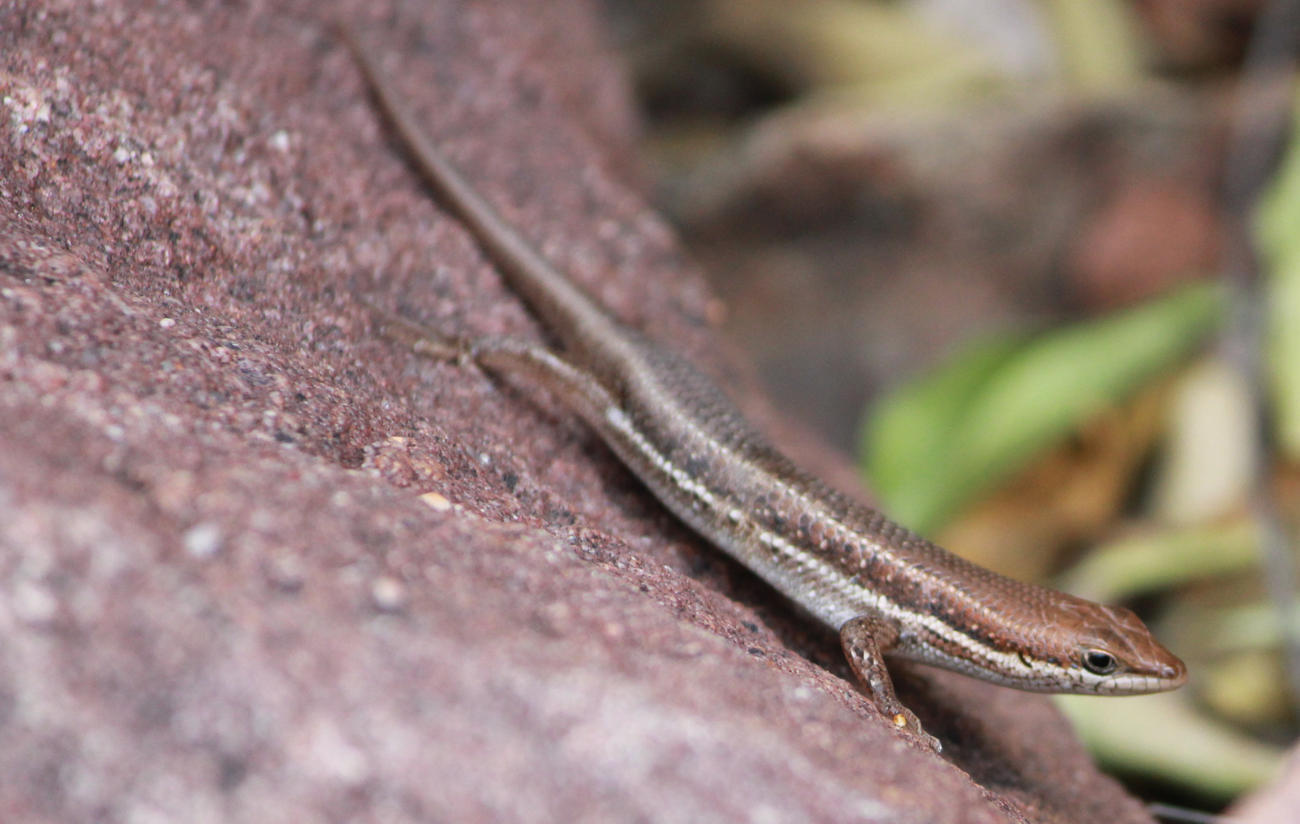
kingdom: Animalia
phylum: Chordata
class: Squamata
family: Scincidae
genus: Trachylepis
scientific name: Trachylepis varia
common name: Eastern variable skink
